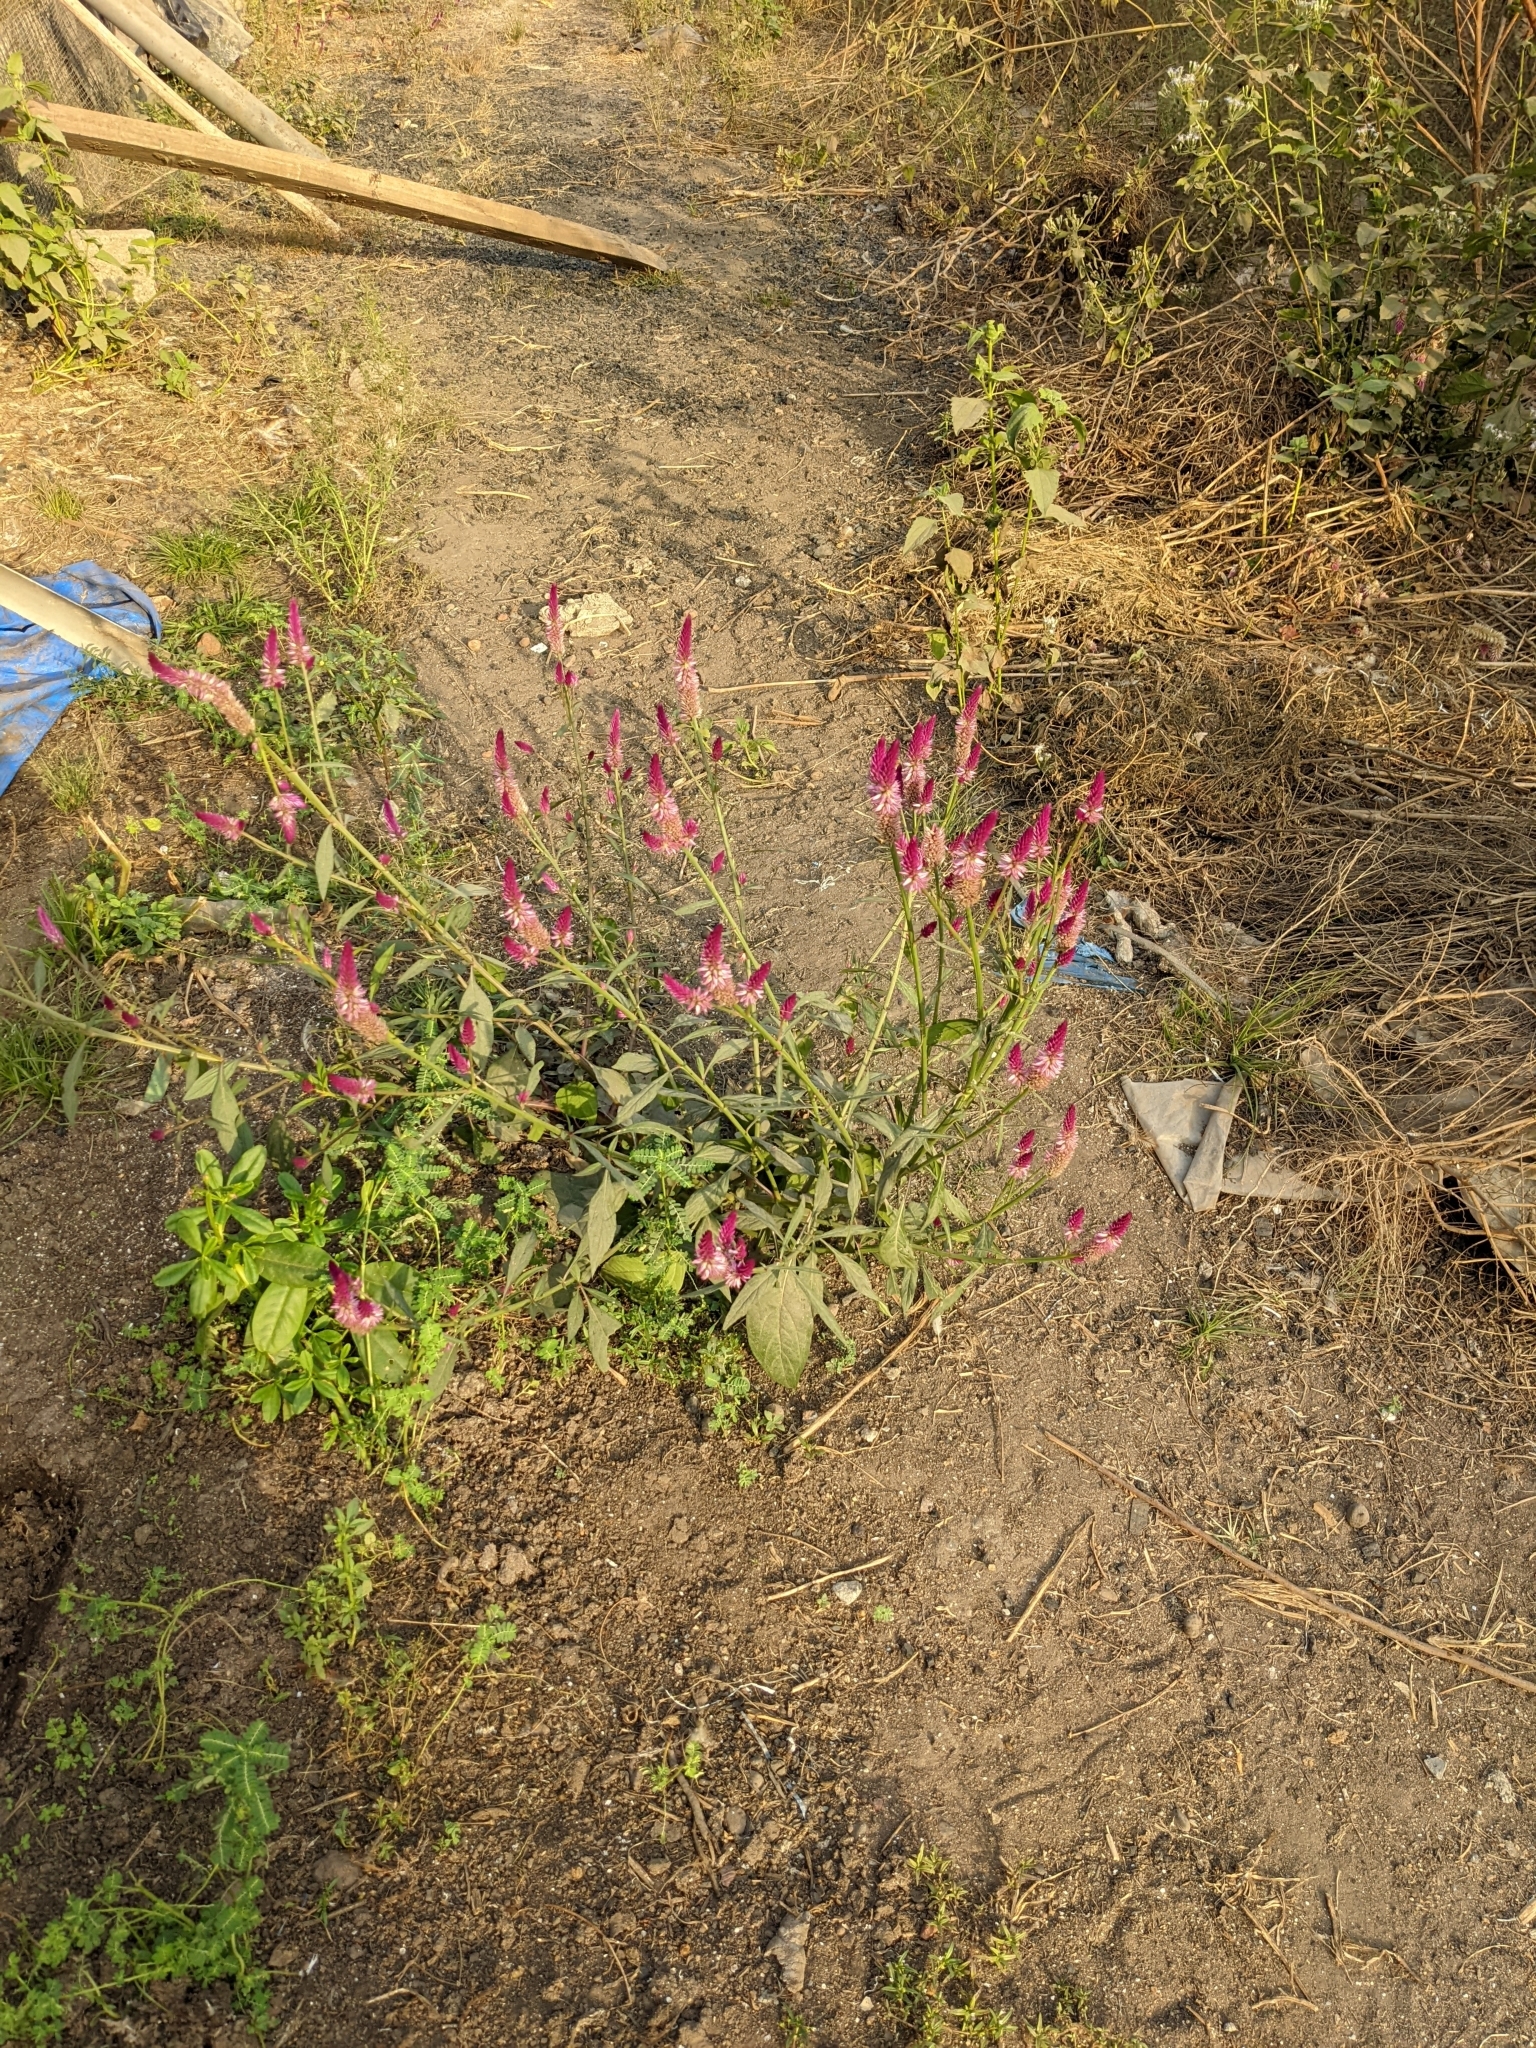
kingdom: Plantae
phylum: Tracheophyta
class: Magnoliopsida
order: Caryophyllales
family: Amaranthaceae
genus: Celosia
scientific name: Celosia argentea
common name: Feather cockscomb
